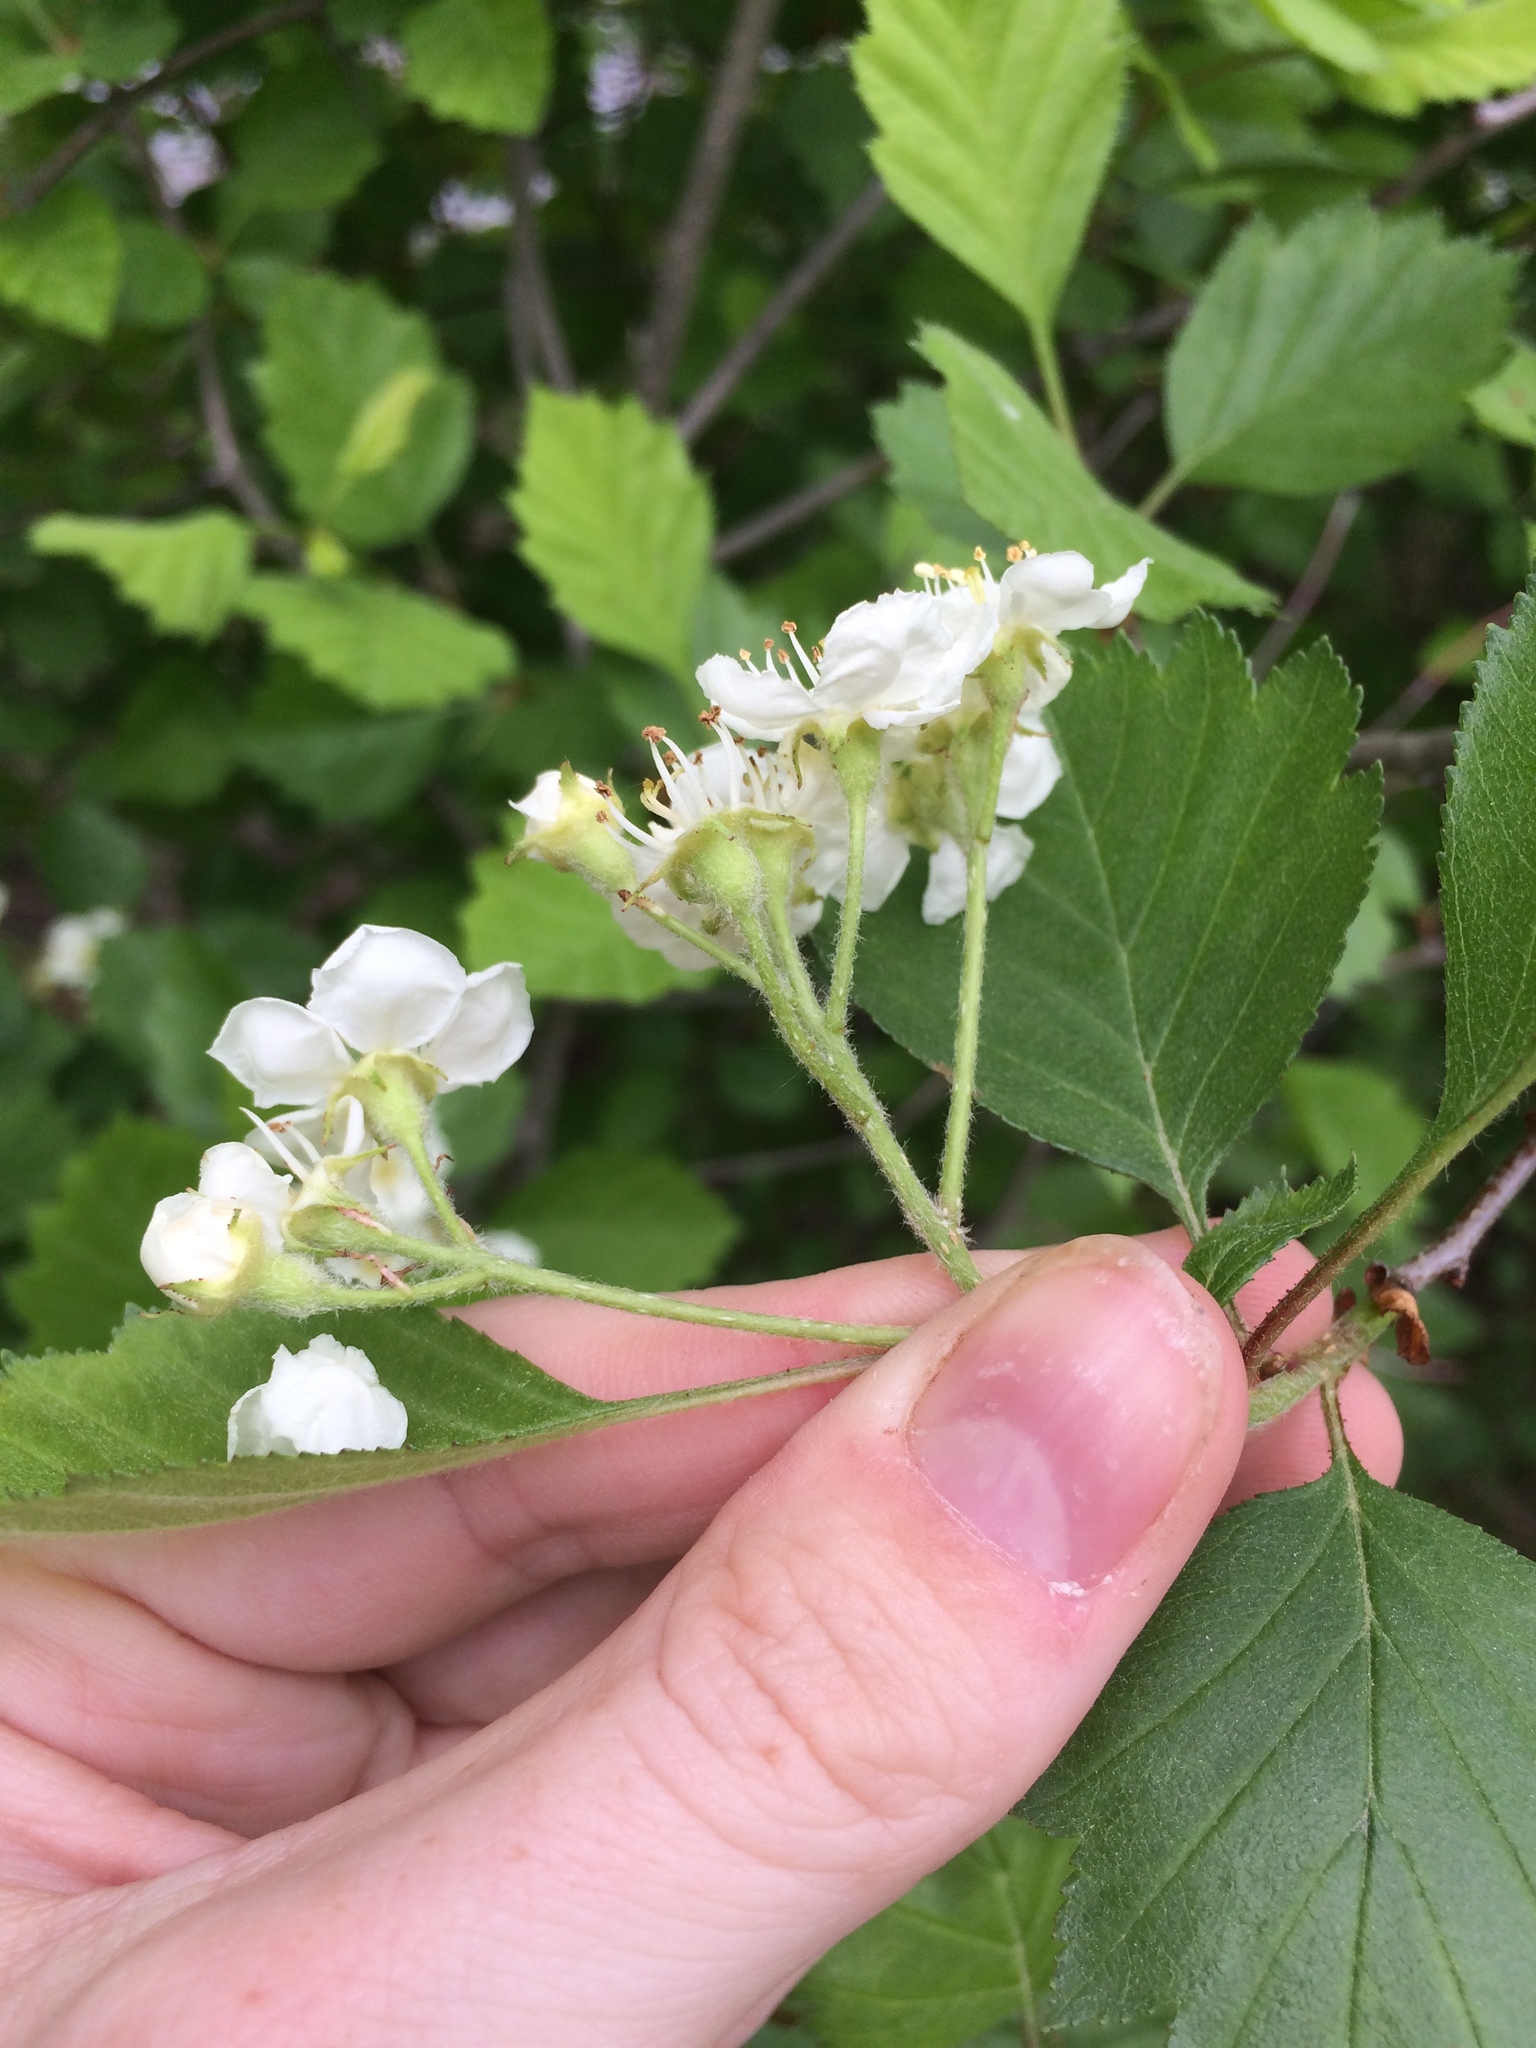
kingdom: Plantae
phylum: Tracheophyta
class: Magnoliopsida
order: Rosales
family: Rosaceae
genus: Crataegus
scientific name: Crataegus chrysocarpa
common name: Fire-berry hawthorn
